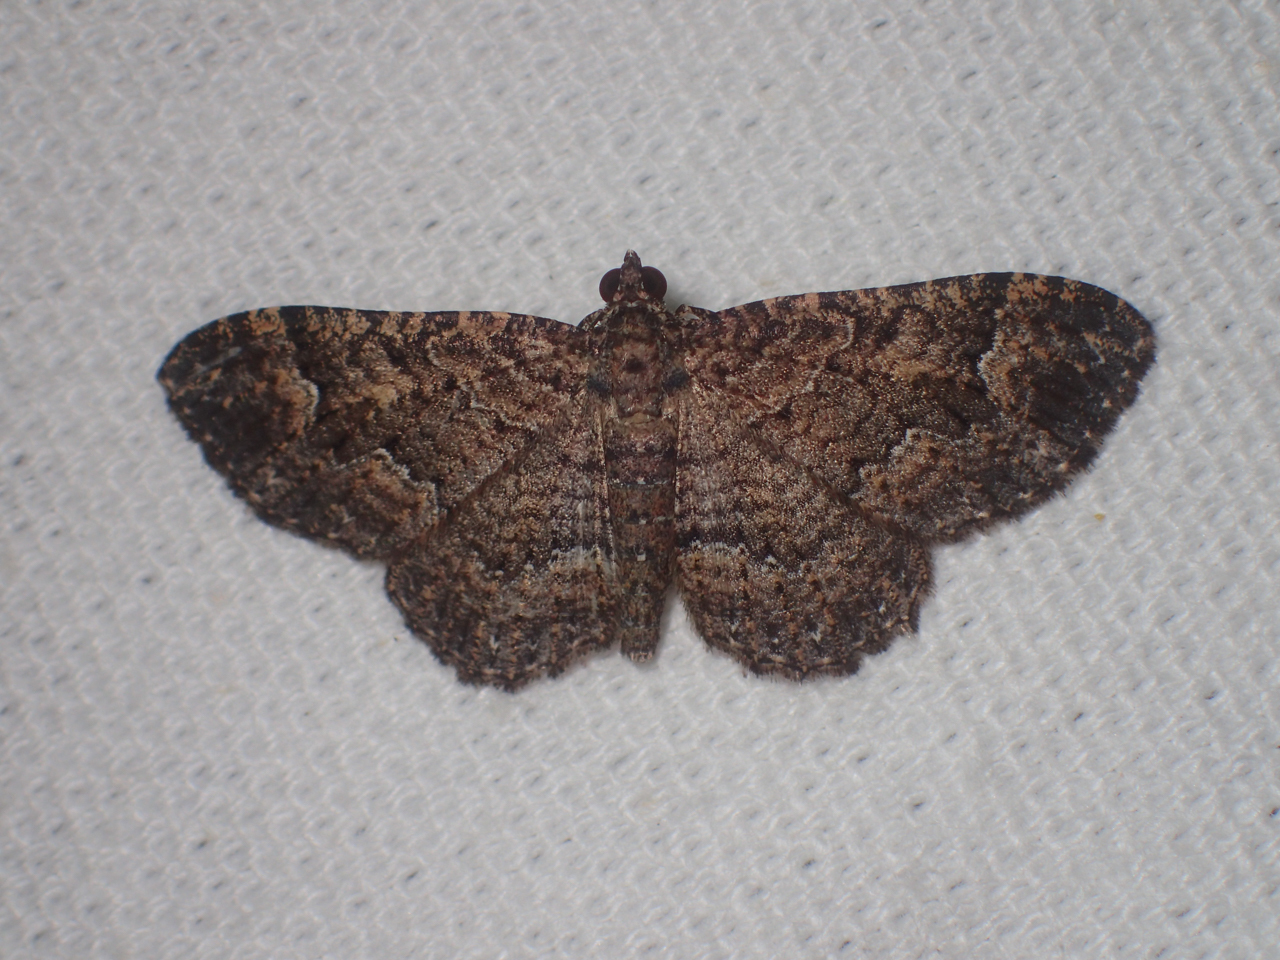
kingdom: Animalia
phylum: Arthropoda
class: Insecta
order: Lepidoptera
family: Geometridae
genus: Disclisioprocta
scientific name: Disclisioprocta stellata
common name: Somber carpet
